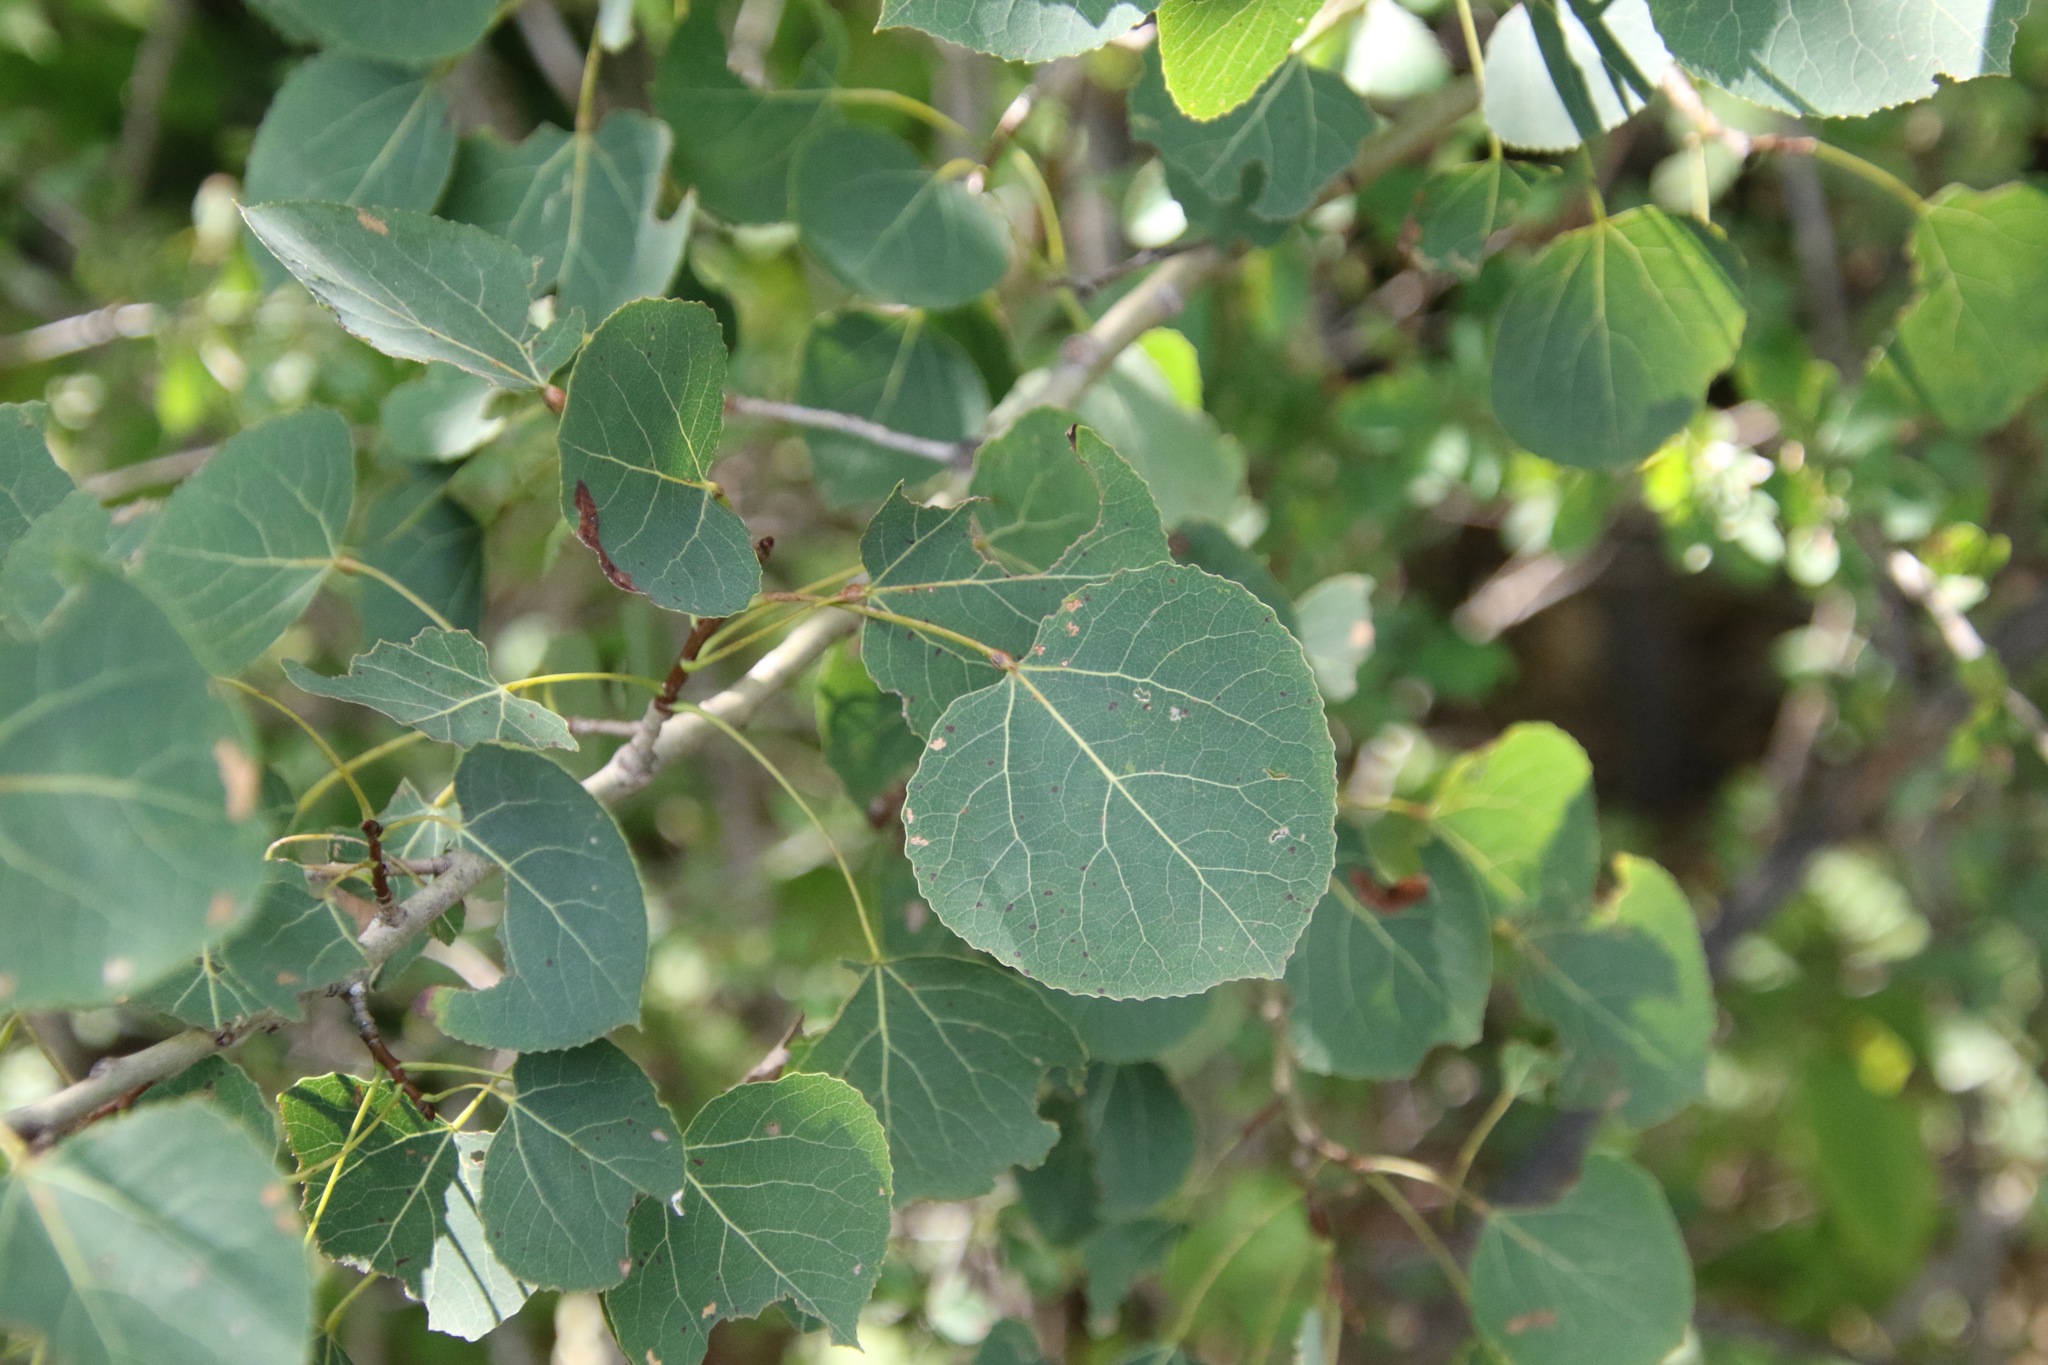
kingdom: Plantae
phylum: Tracheophyta
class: Magnoliopsida
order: Malpighiales
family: Salicaceae
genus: Populus
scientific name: Populus tremuloides
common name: Quaking aspen
